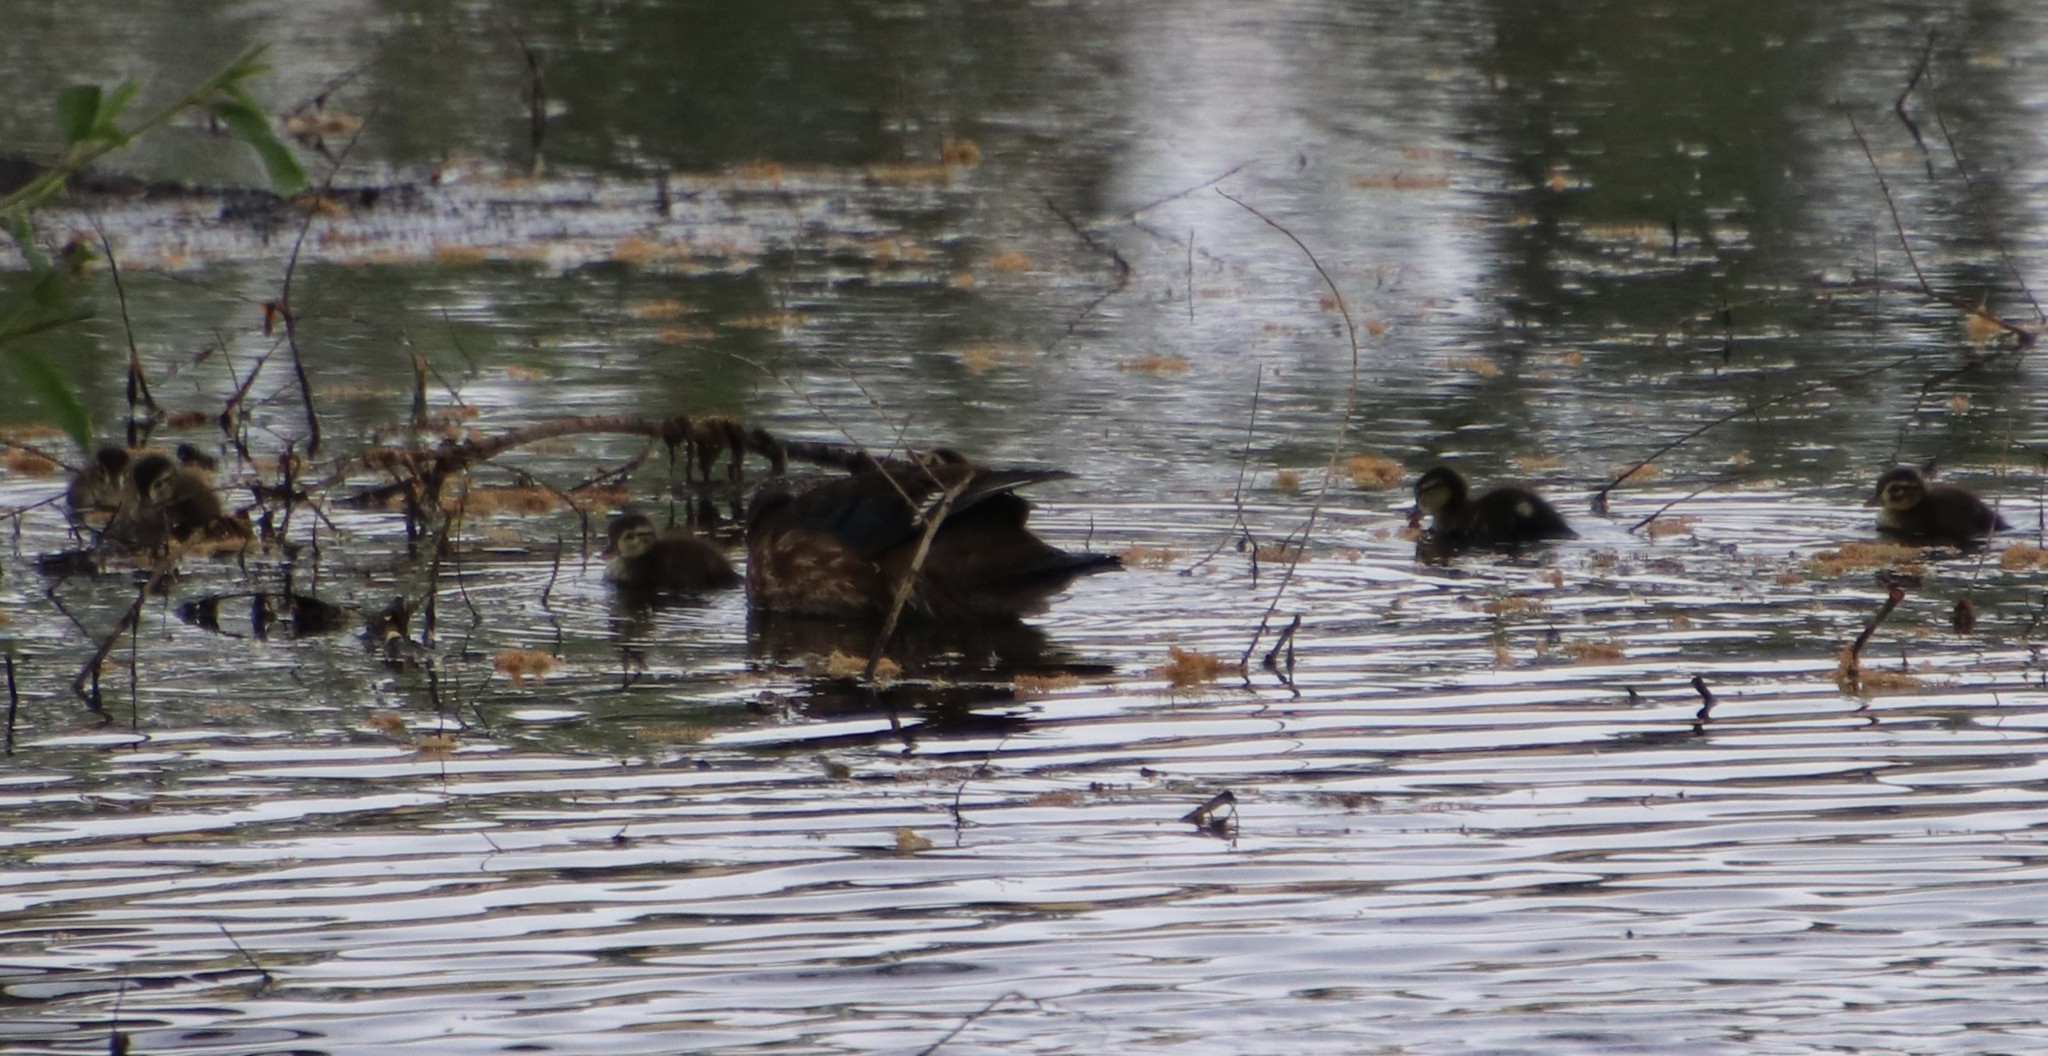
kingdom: Animalia
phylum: Chordata
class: Aves
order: Anseriformes
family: Anatidae
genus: Aix
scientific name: Aix sponsa
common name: Wood duck
